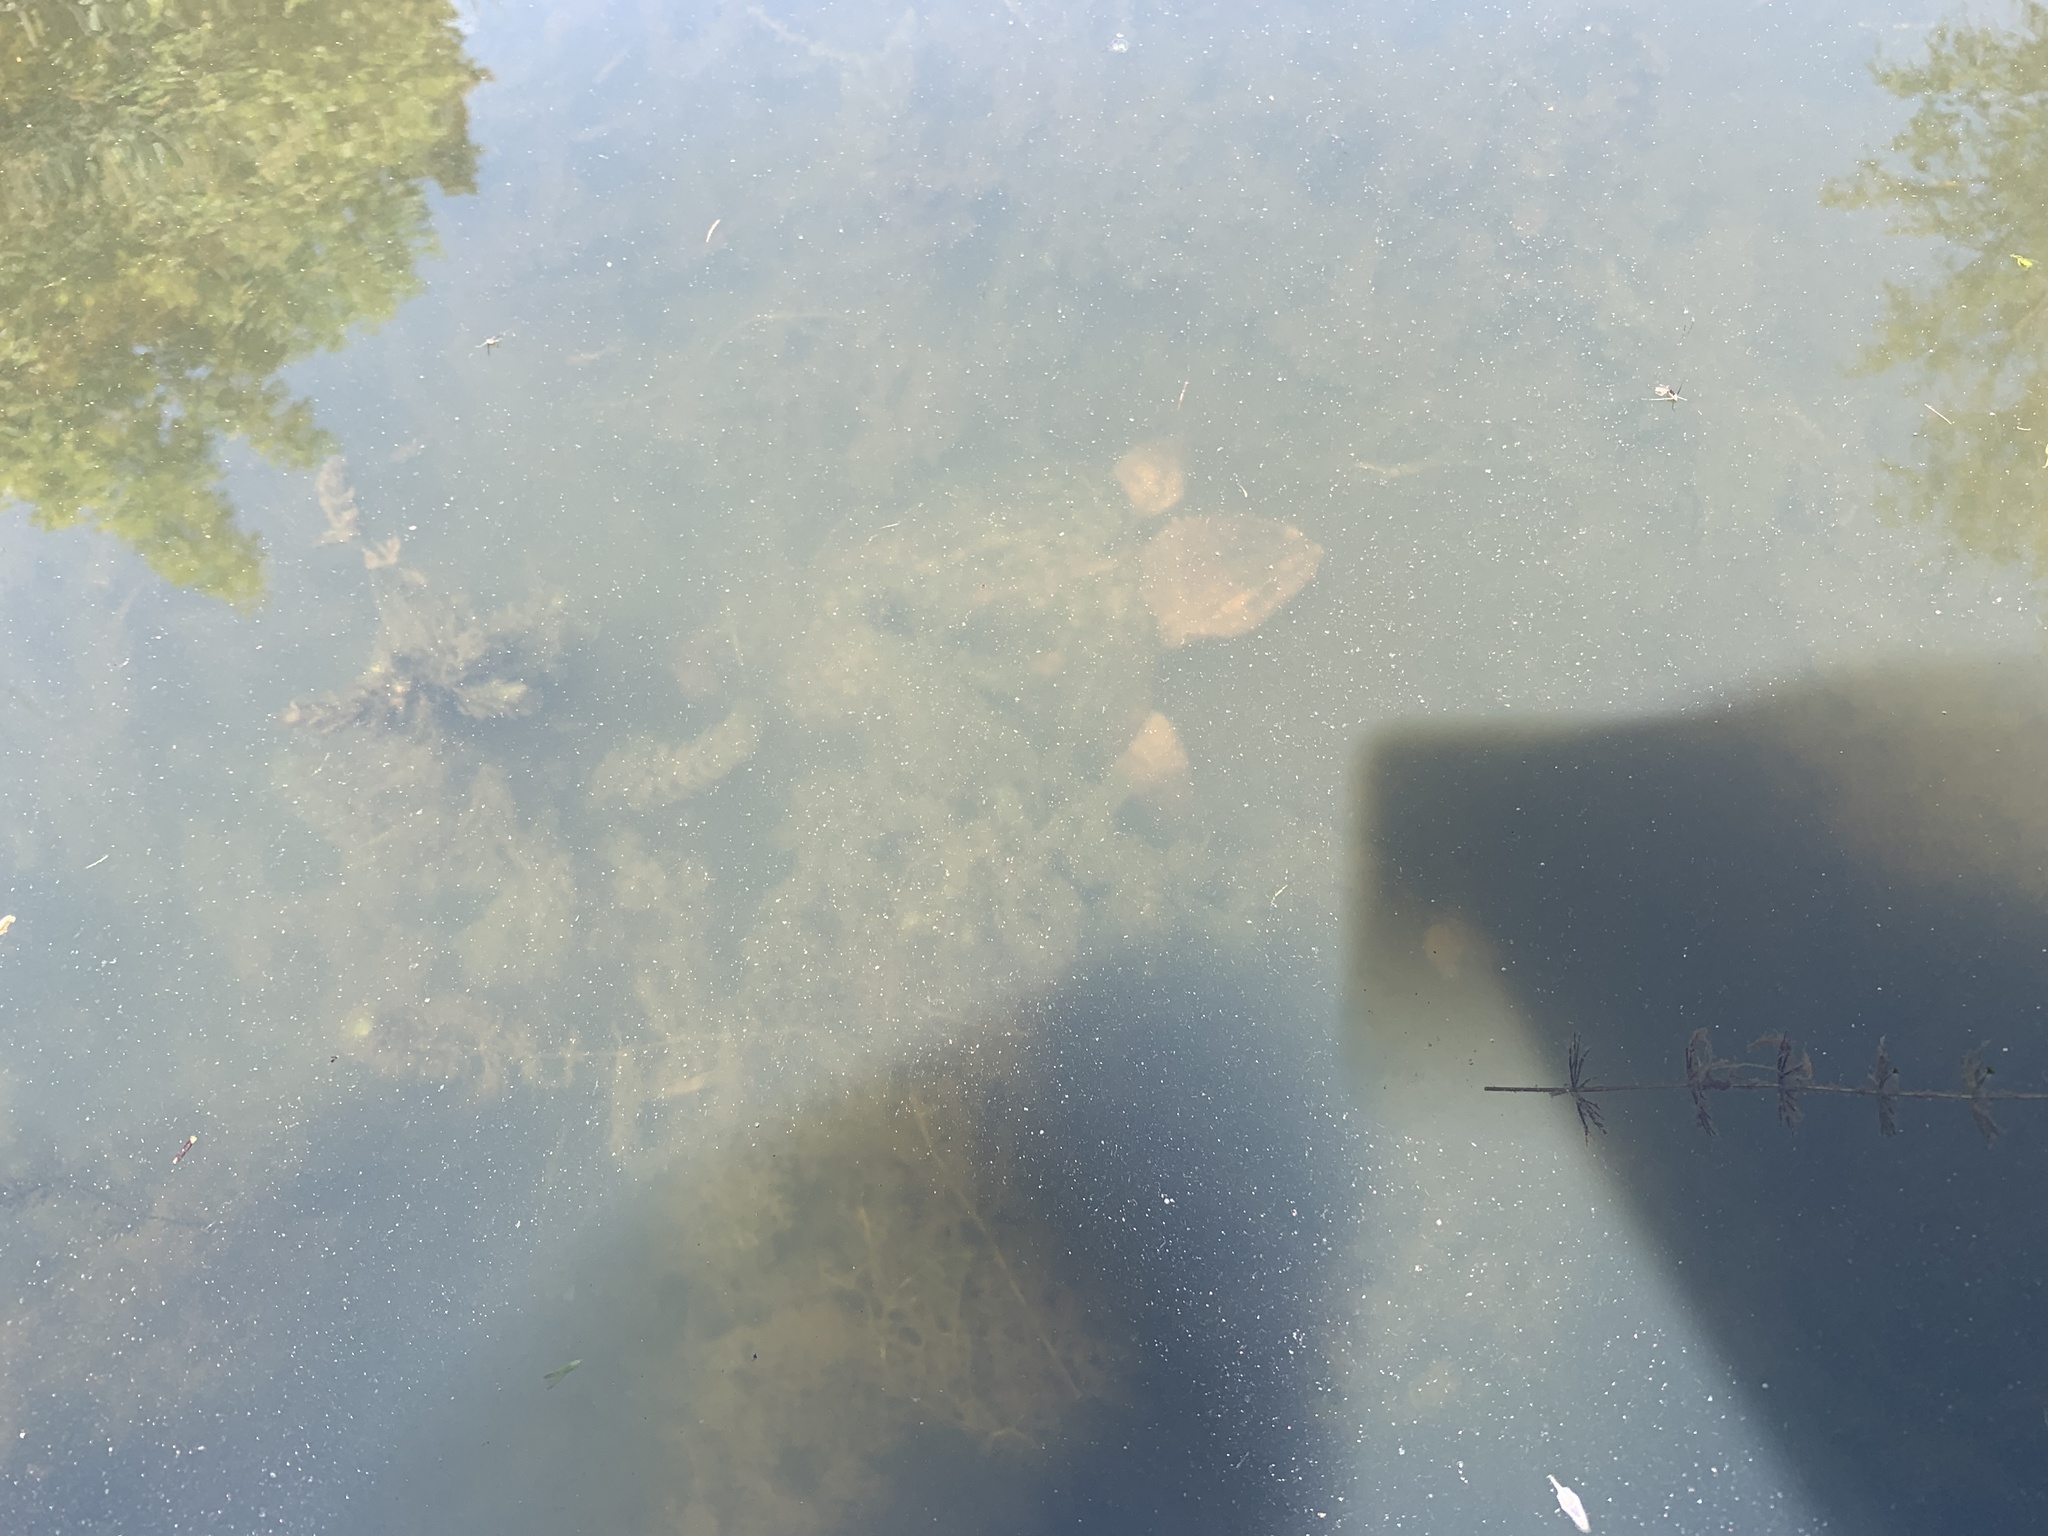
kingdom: Animalia
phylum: Chordata
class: Testudines
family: Chelydridae
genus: Chelydra
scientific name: Chelydra serpentina
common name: Common snapping turtle
